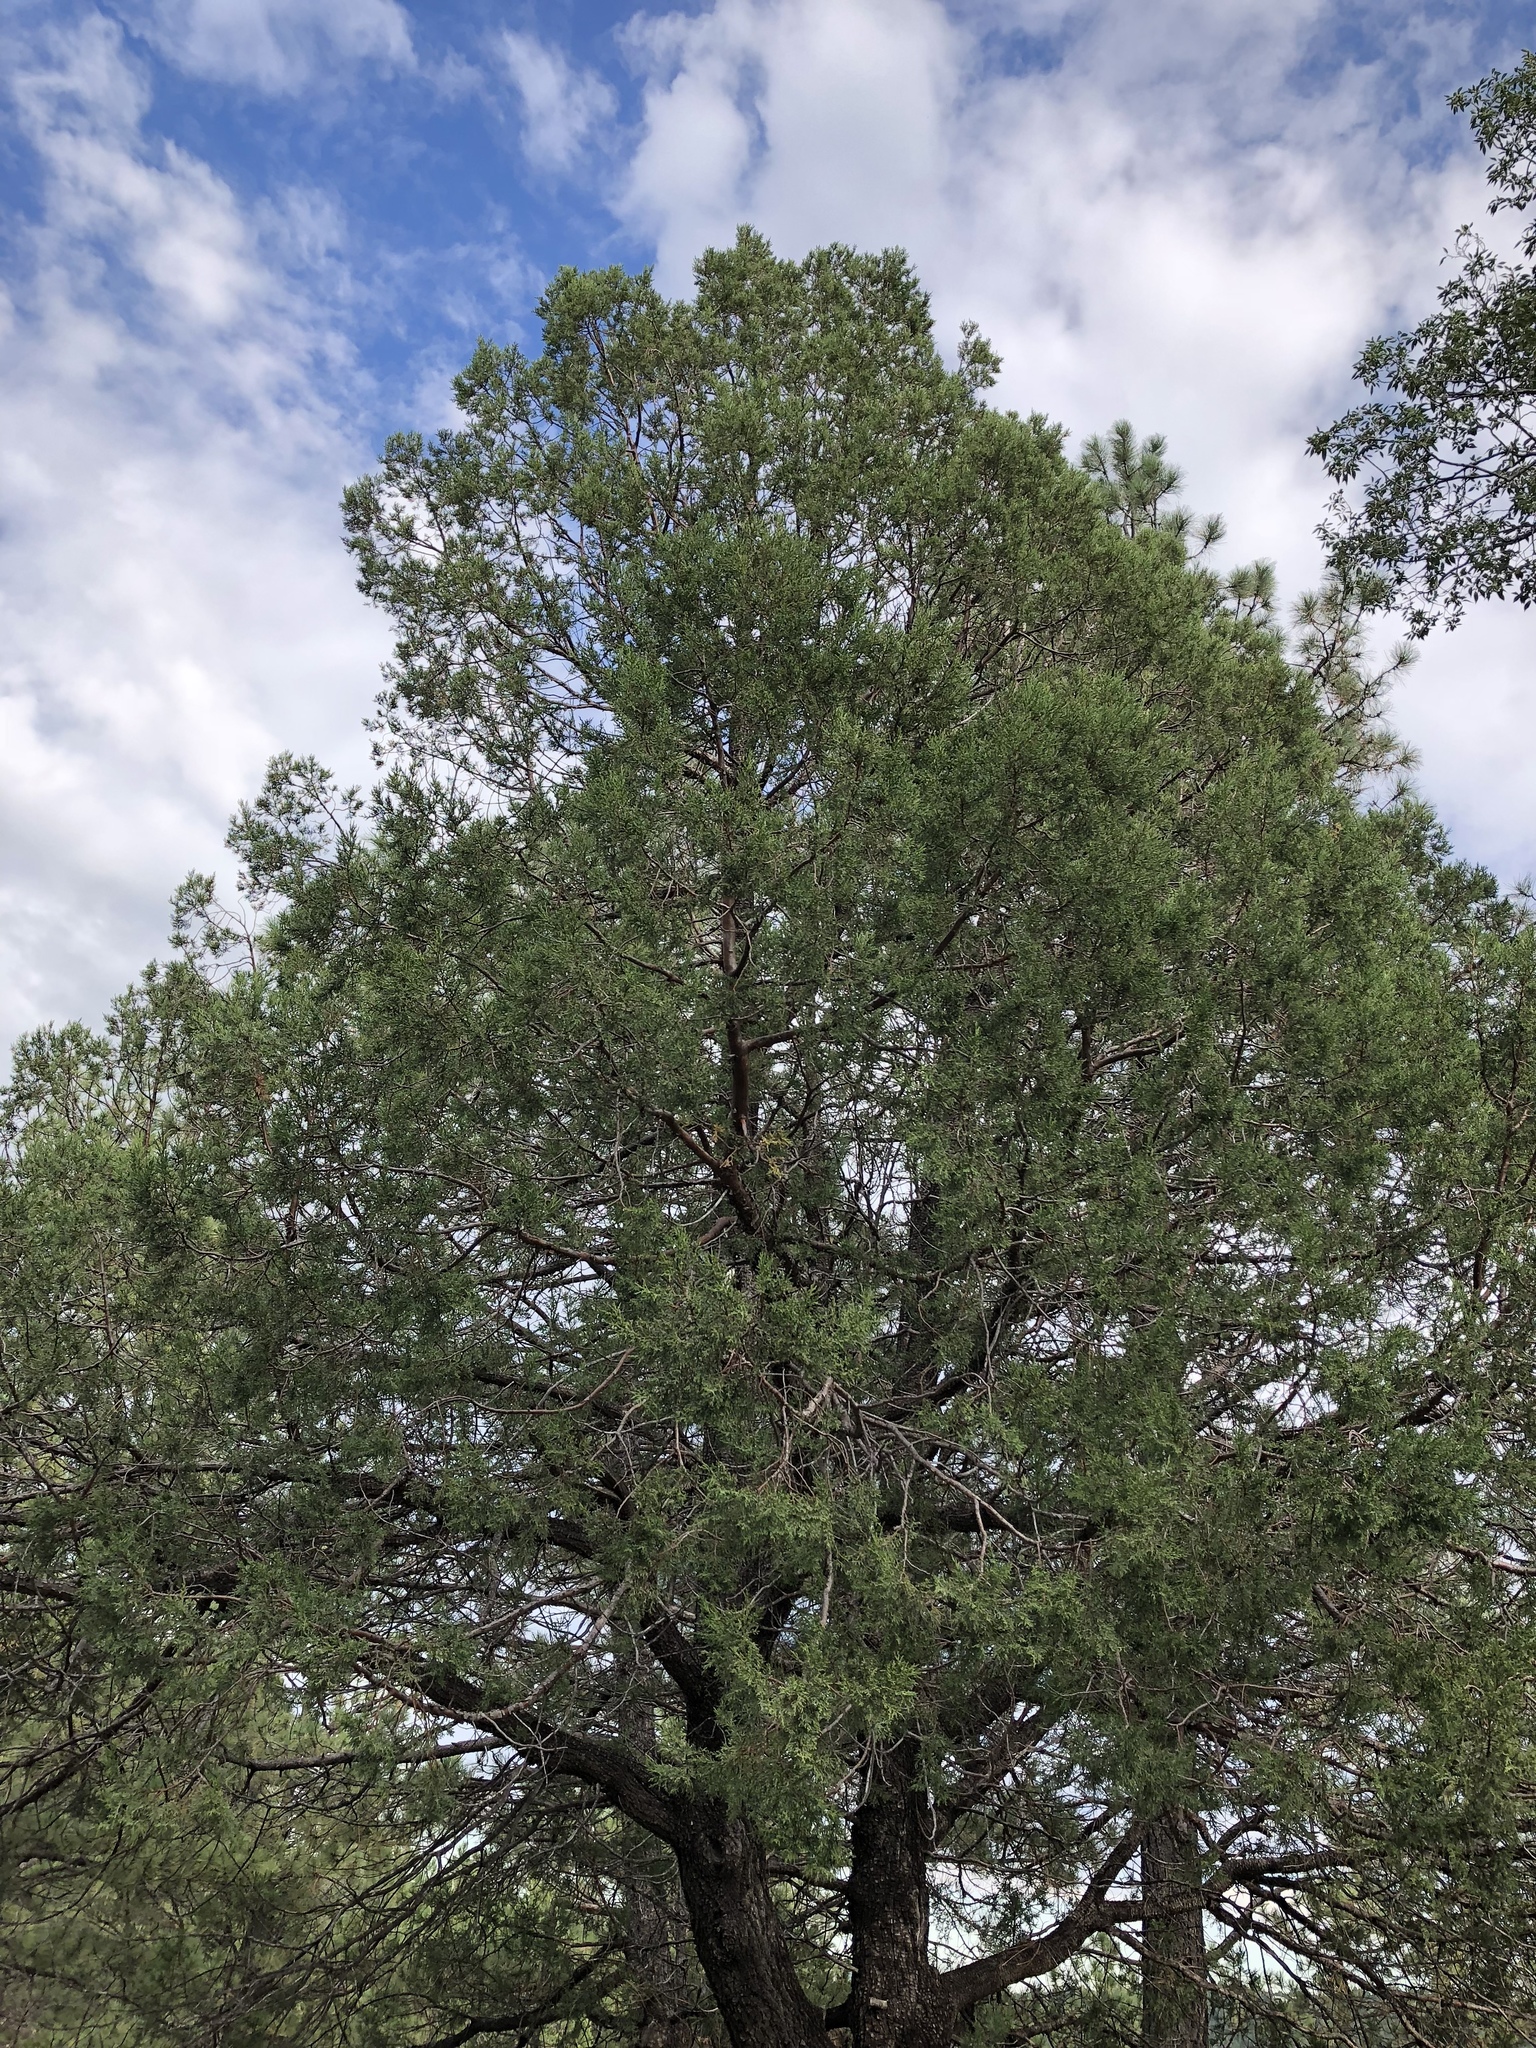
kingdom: Plantae
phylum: Tracheophyta
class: Pinopsida
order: Pinales
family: Cupressaceae
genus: Juniperus
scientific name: Juniperus deppeana
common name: Alligator juniper
